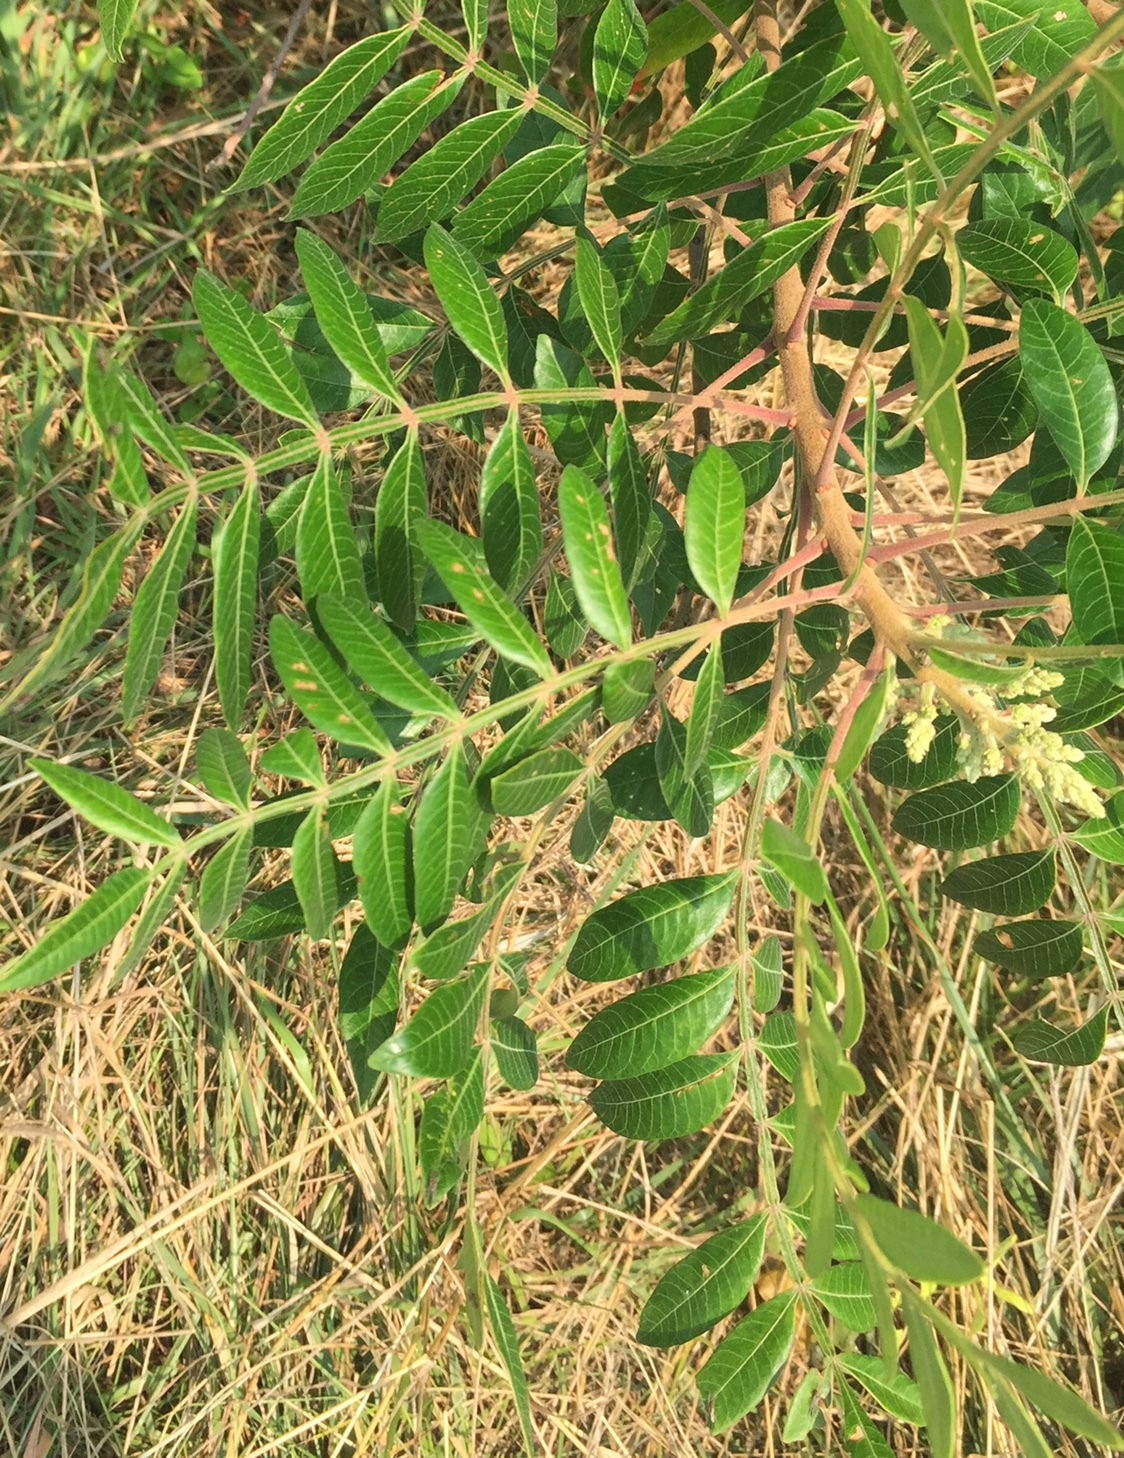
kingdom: Plantae
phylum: Tracheophyta
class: Magnoliopsida
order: Sapindales
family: Anacardiaceae
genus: Rhus
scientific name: Rhus copallina
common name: Shining sumac
